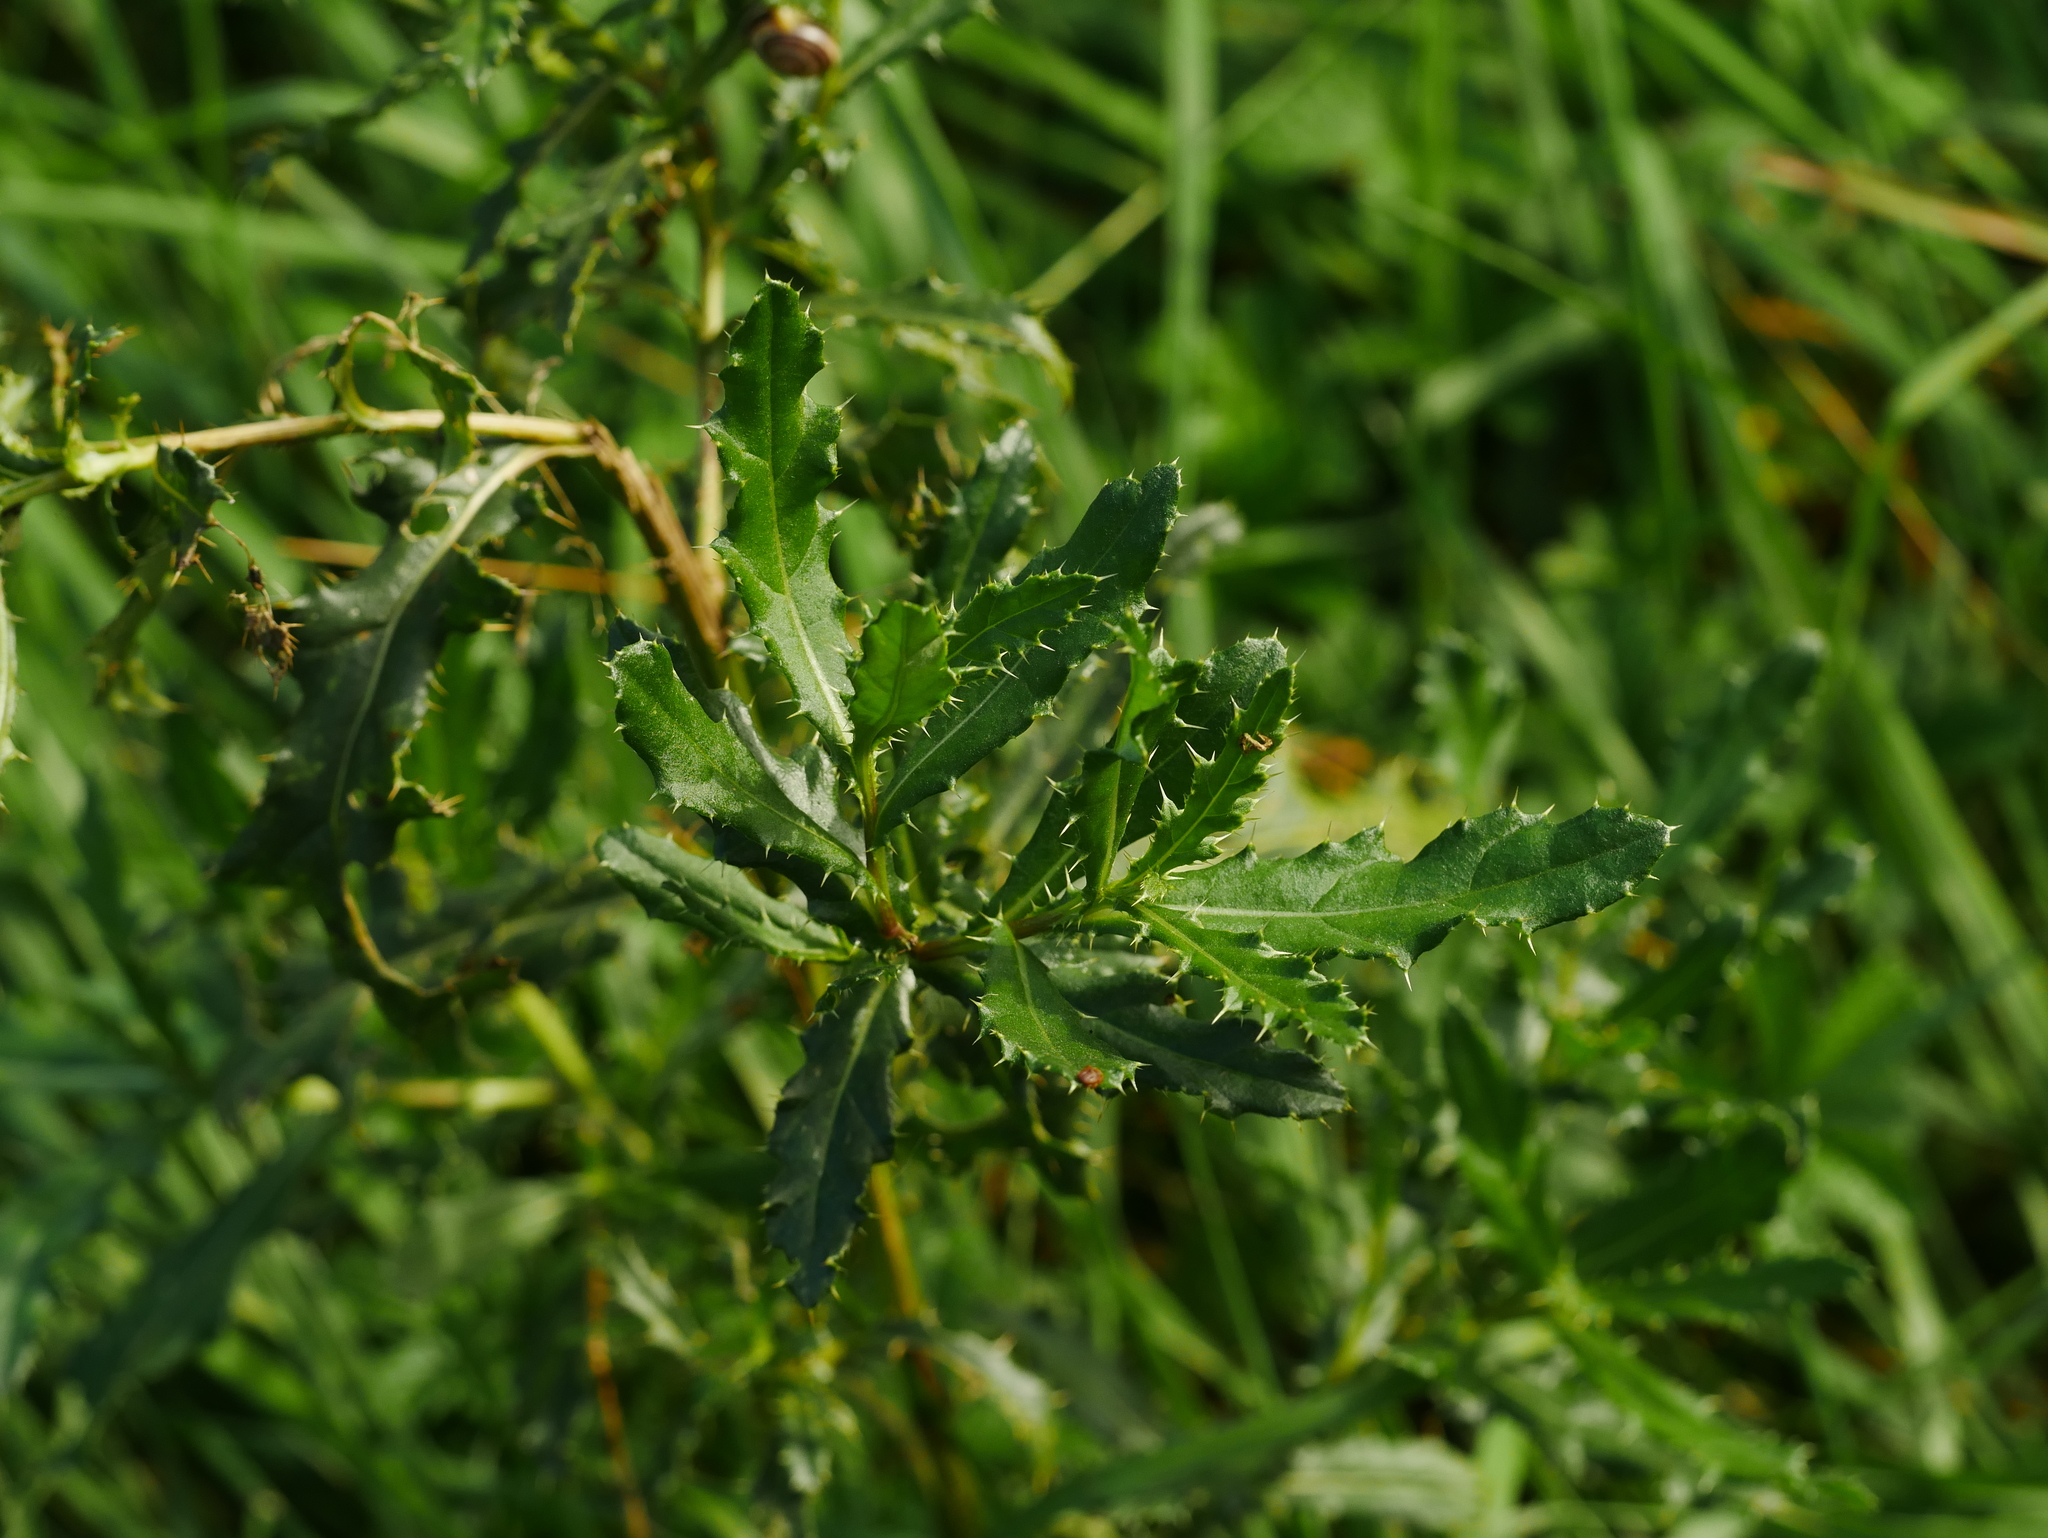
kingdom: Plantae
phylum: Tracheophyta
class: Magnoliopsida
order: Asterales
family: Asteraceae
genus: Cirsium
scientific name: Cirsium arvense
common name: Creeping thistle
